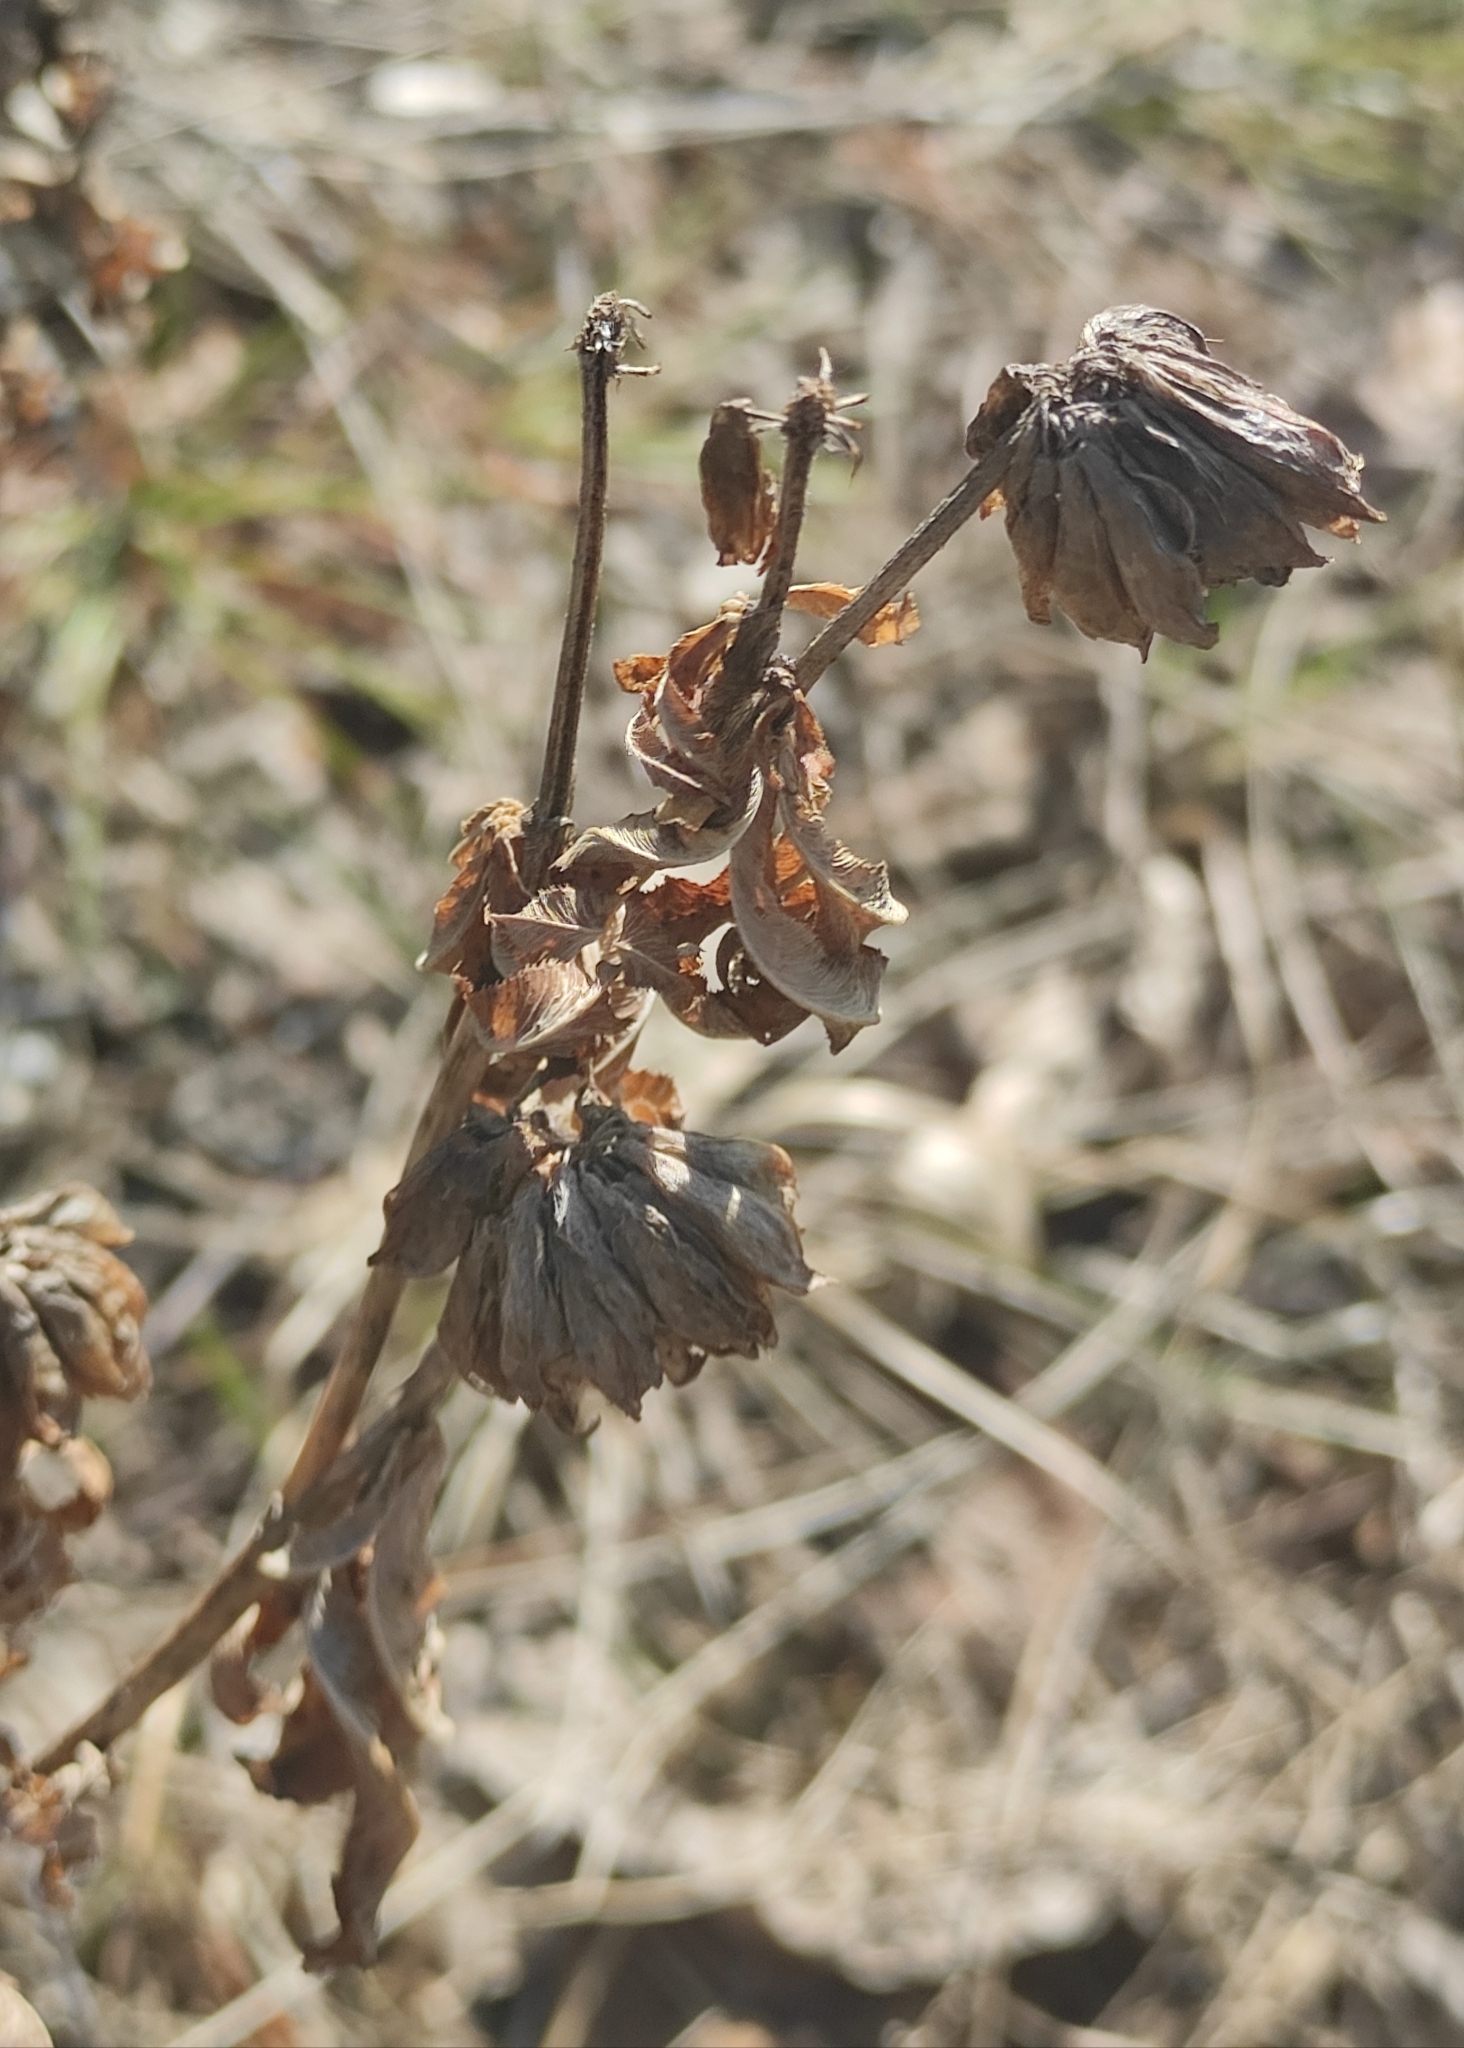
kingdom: Plantae
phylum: Tracheophyta
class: Magnoliopsida
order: Fabales
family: Fabaceae
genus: Trifolium
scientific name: Trifolium lupinaster
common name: Lupine clover
